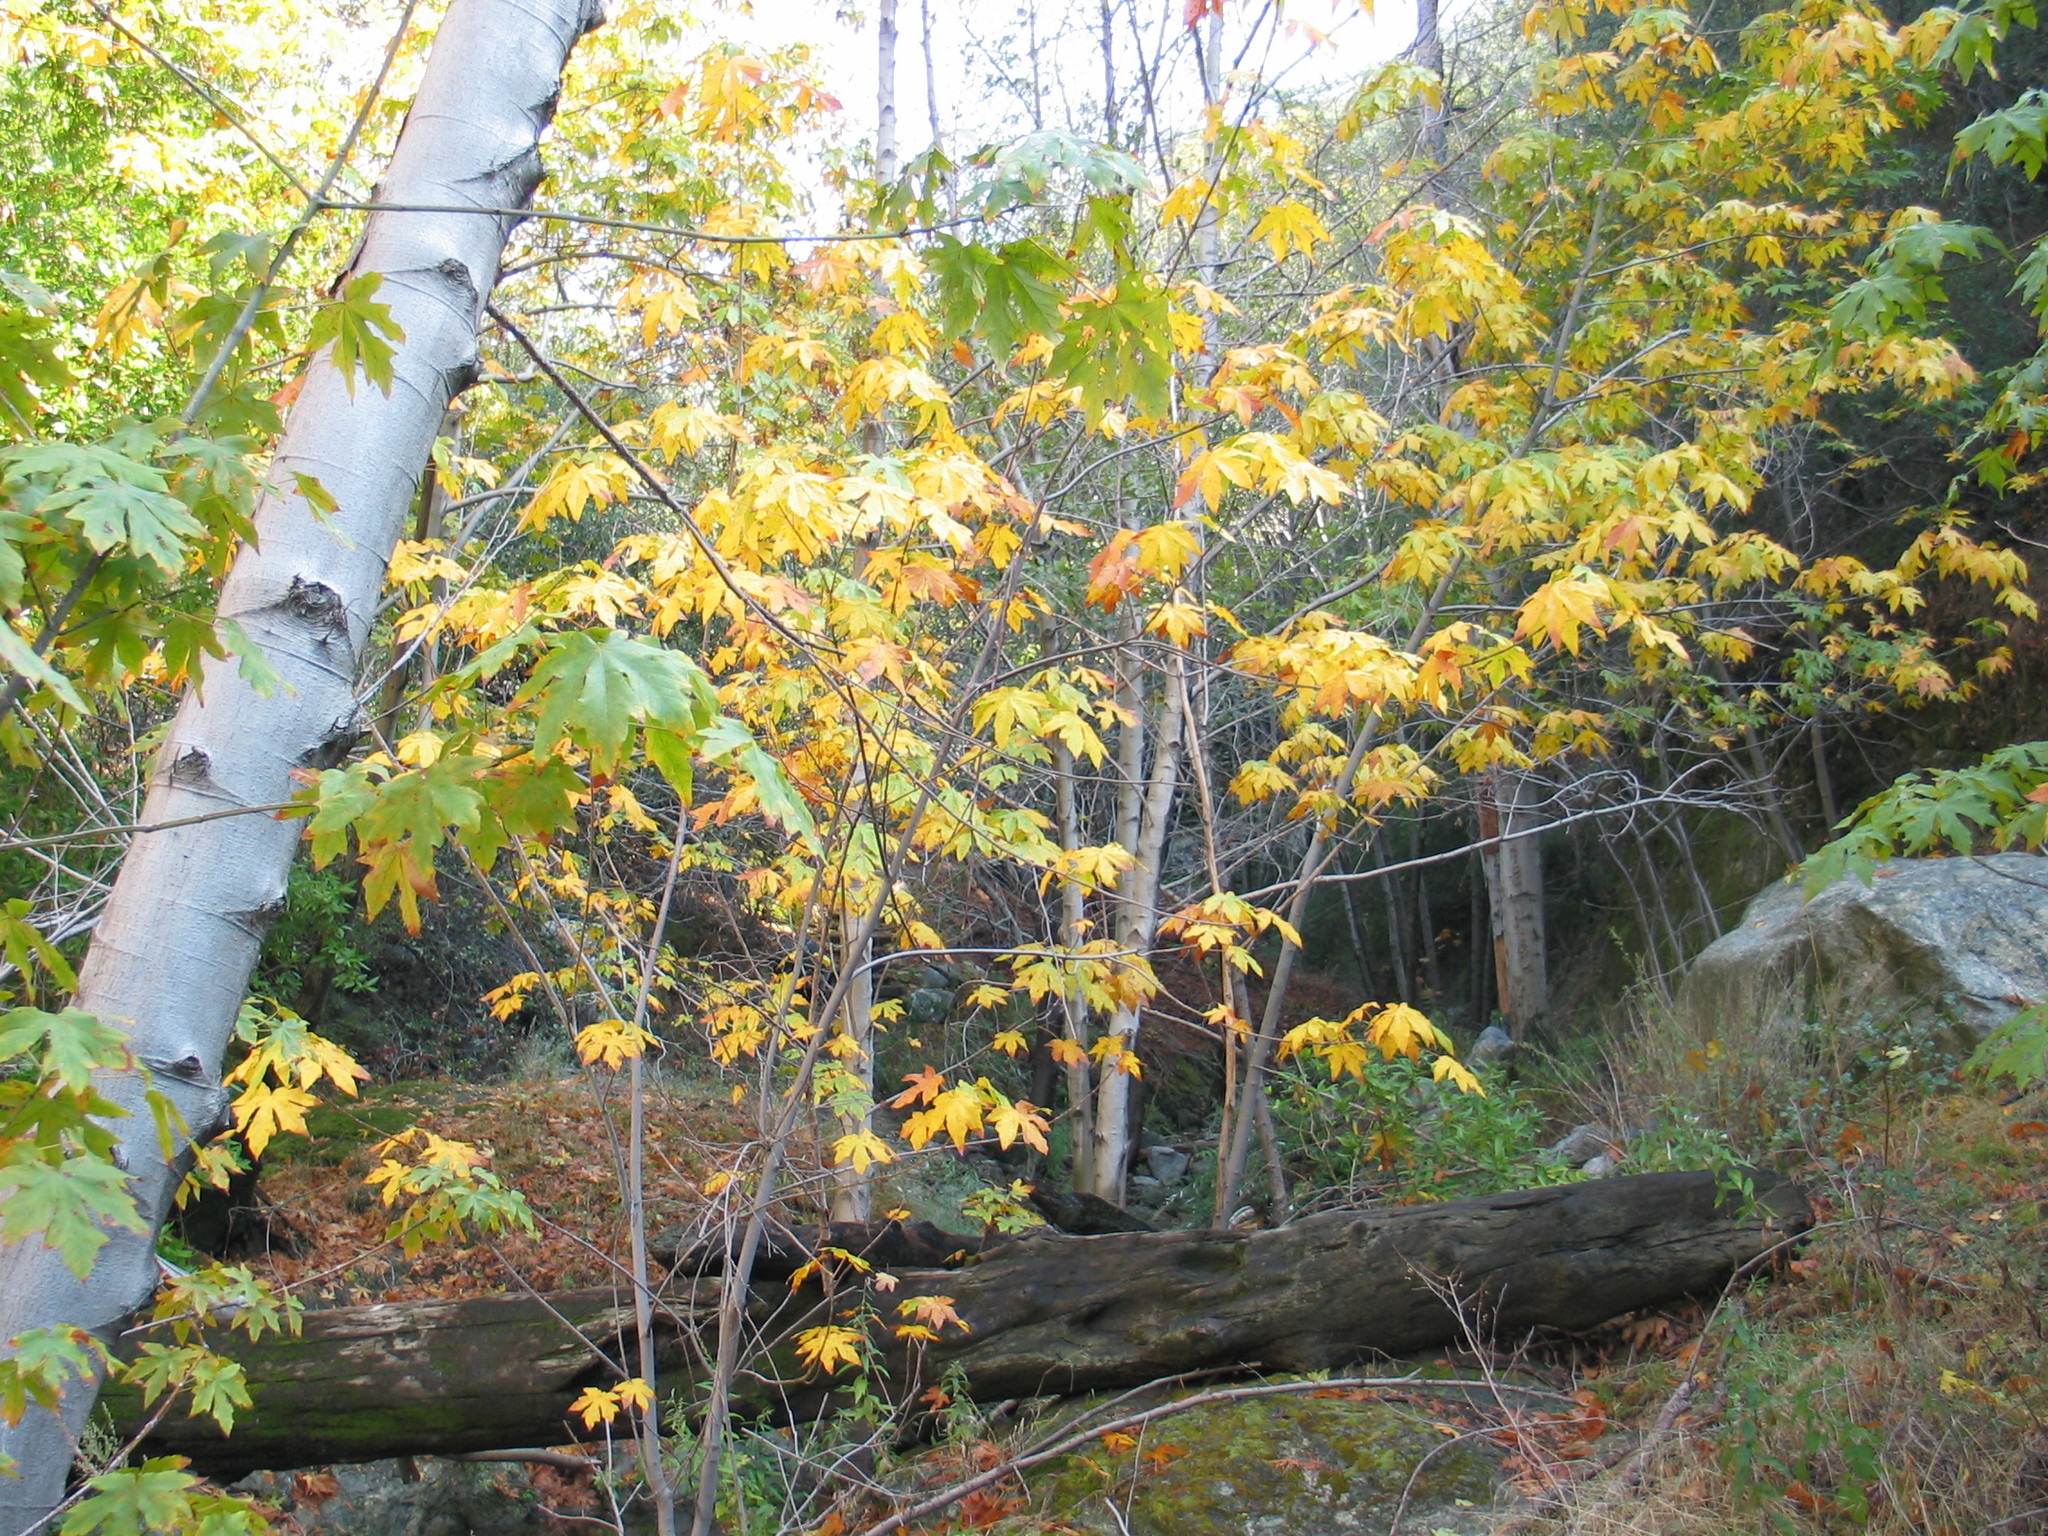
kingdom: Plantae
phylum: Tracheophyta
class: Magnoliopsida
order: Sapindales
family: Sapindaceae
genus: Acer
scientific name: Acer macrophyllum
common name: Oregon maple
